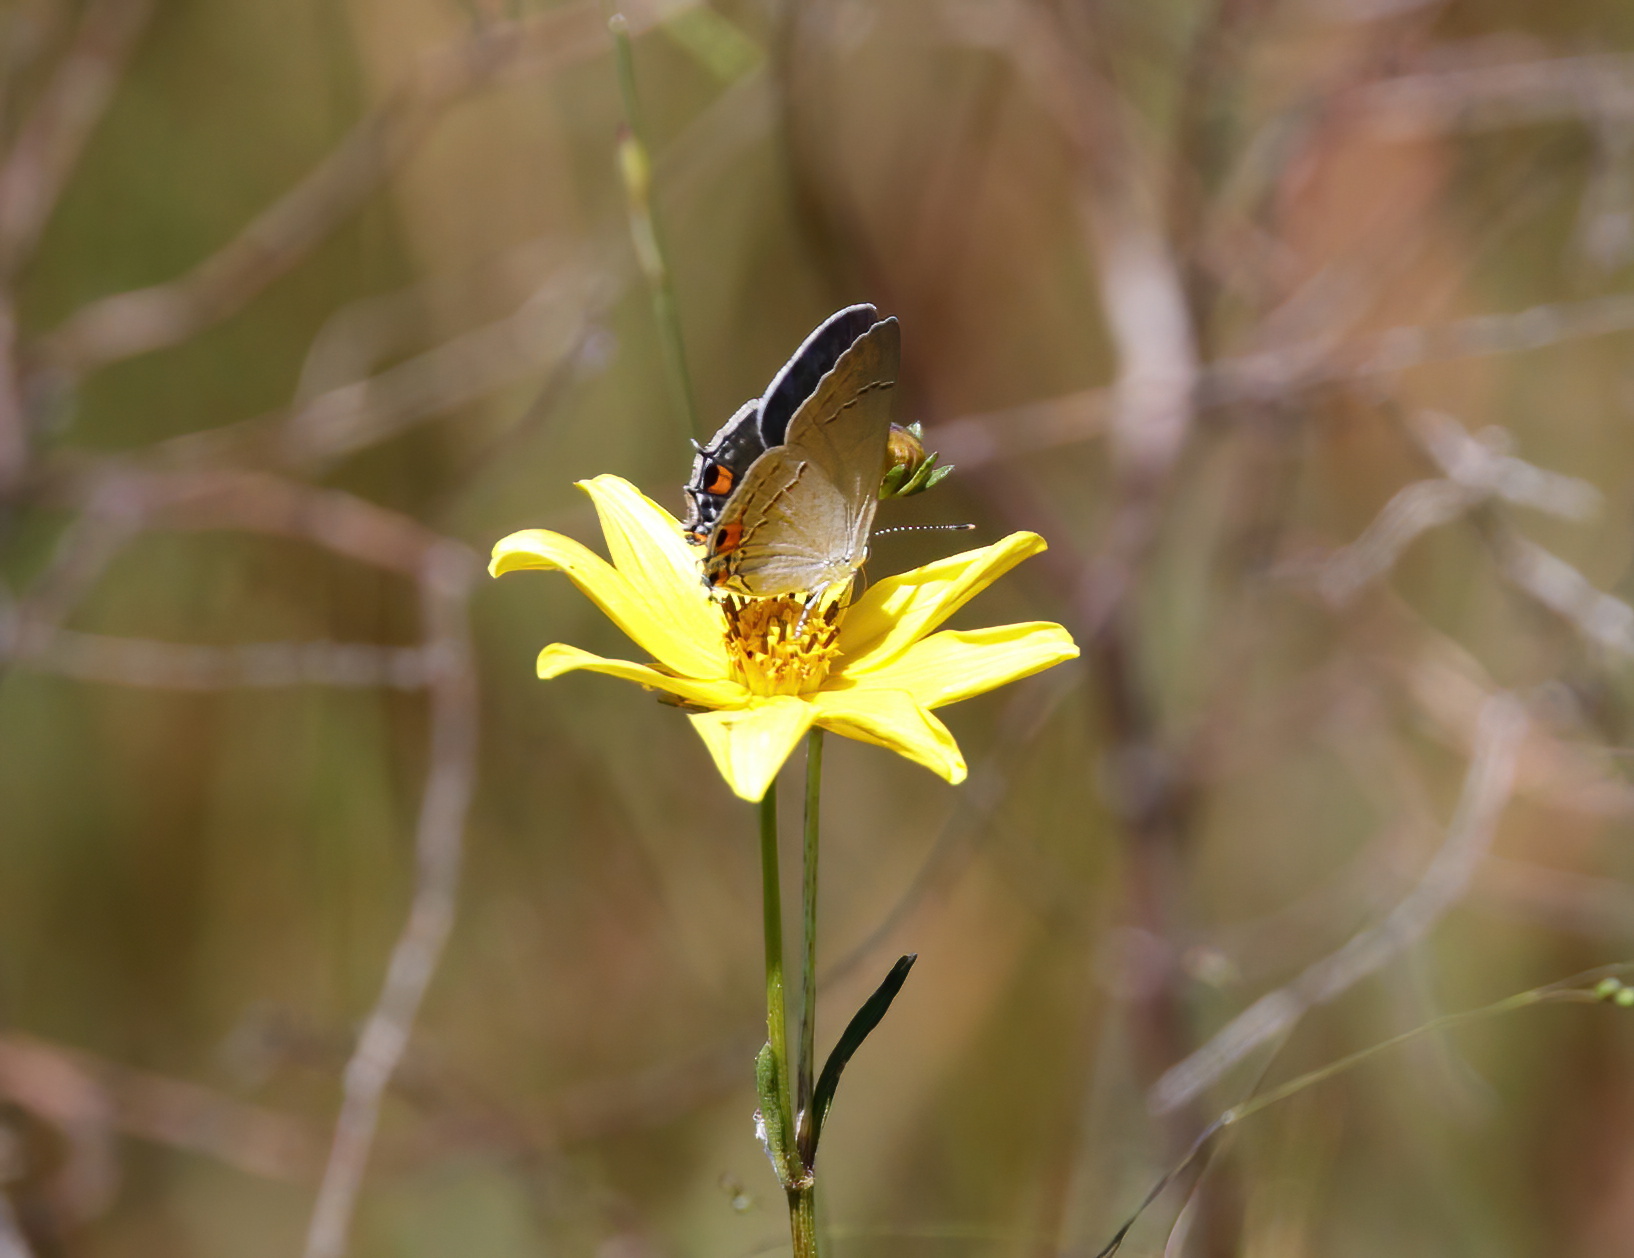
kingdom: Animalia
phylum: Arthropoda
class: Insecta
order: Lepidoptera
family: Lycaenidae
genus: Strymon
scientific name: Strymon melinus
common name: Gray hairstreak
